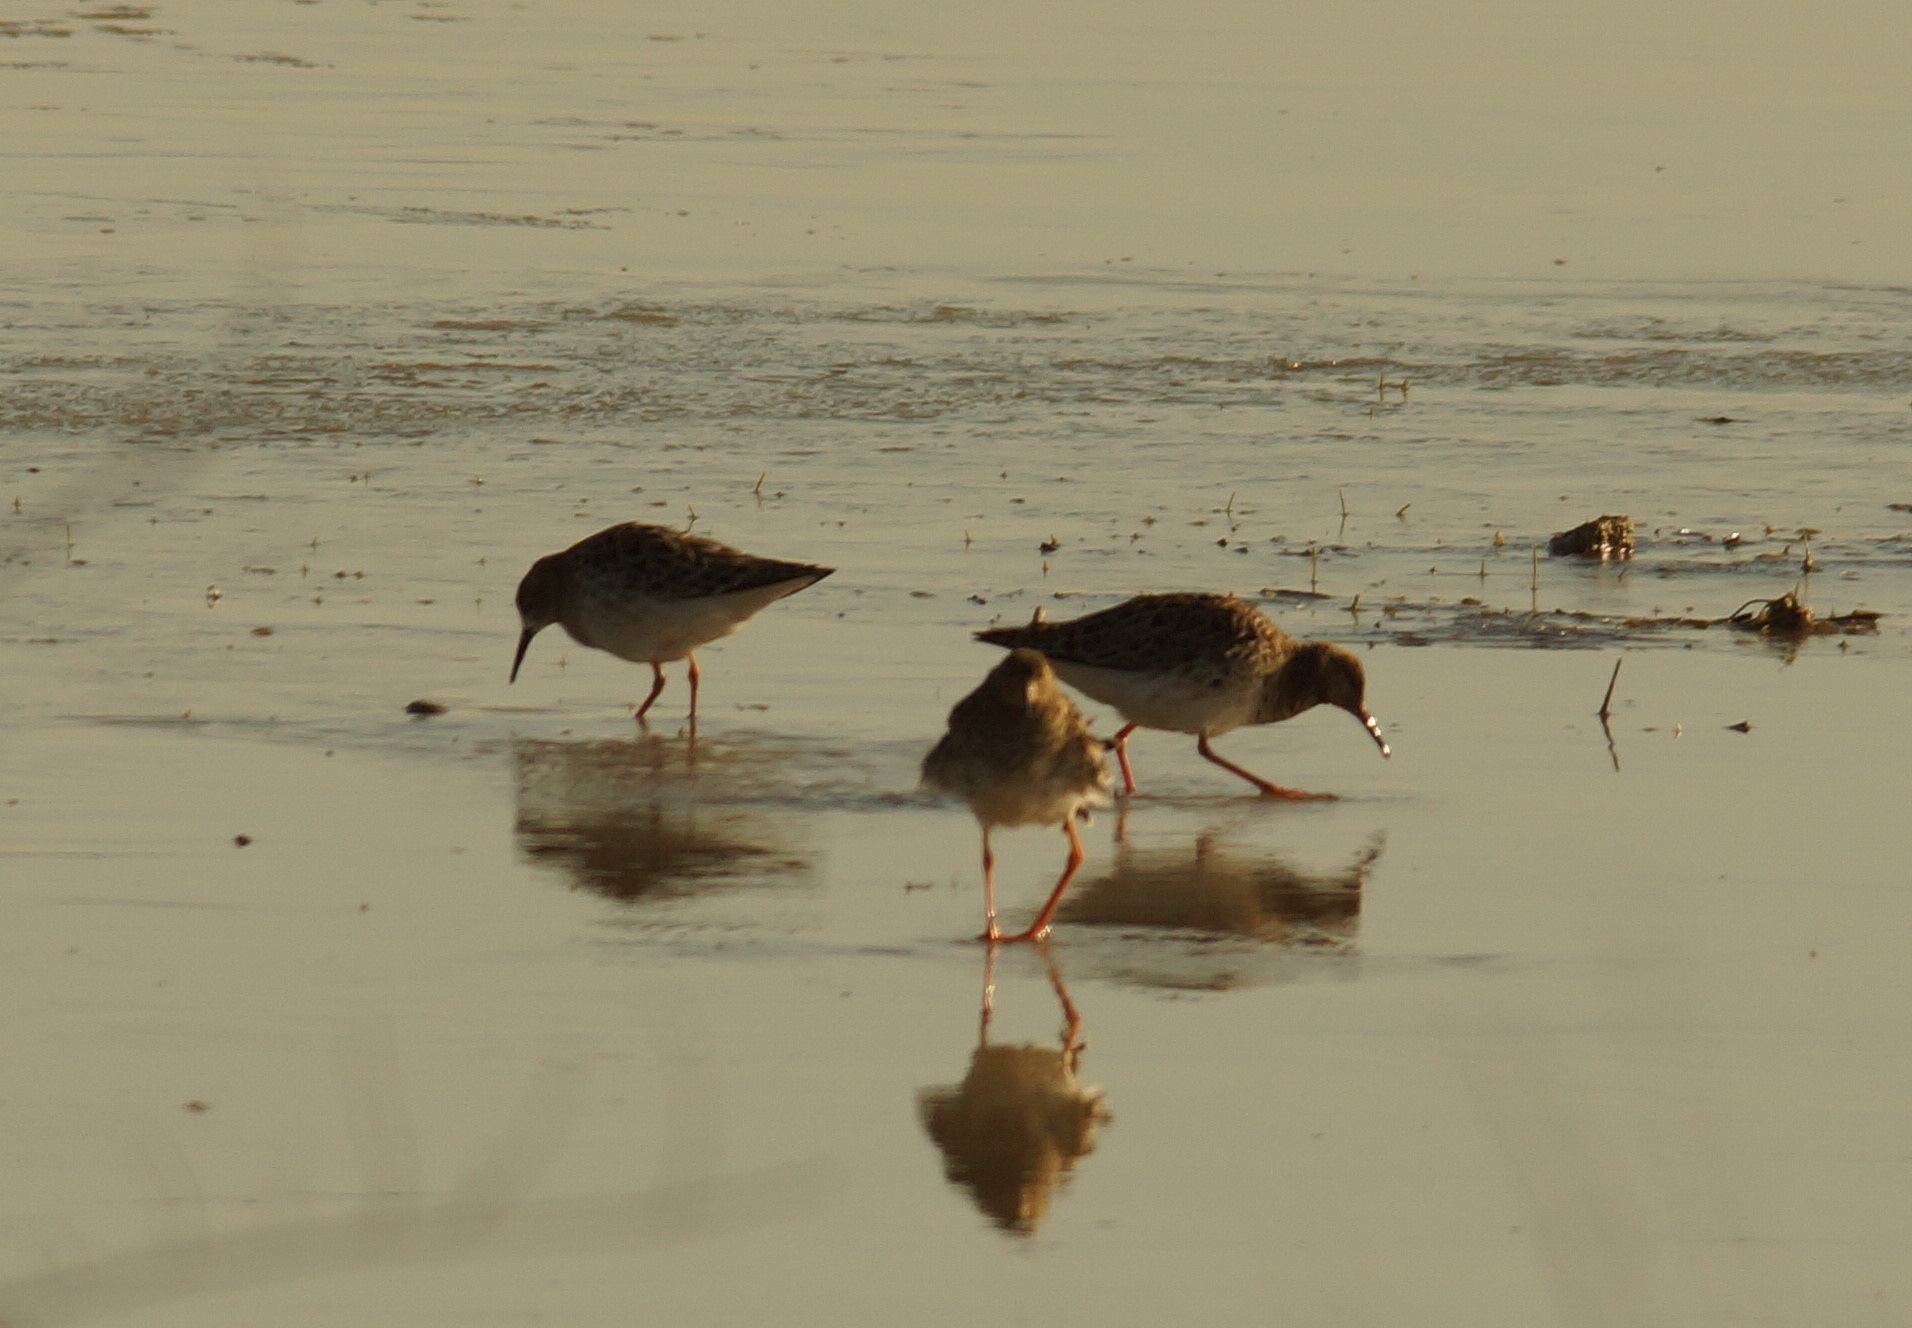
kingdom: Animalia
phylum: Chordata
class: Aves
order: Charadriiformes
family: Scolopacidae
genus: Calidris
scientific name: Calidris pugnax
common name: Ruff
